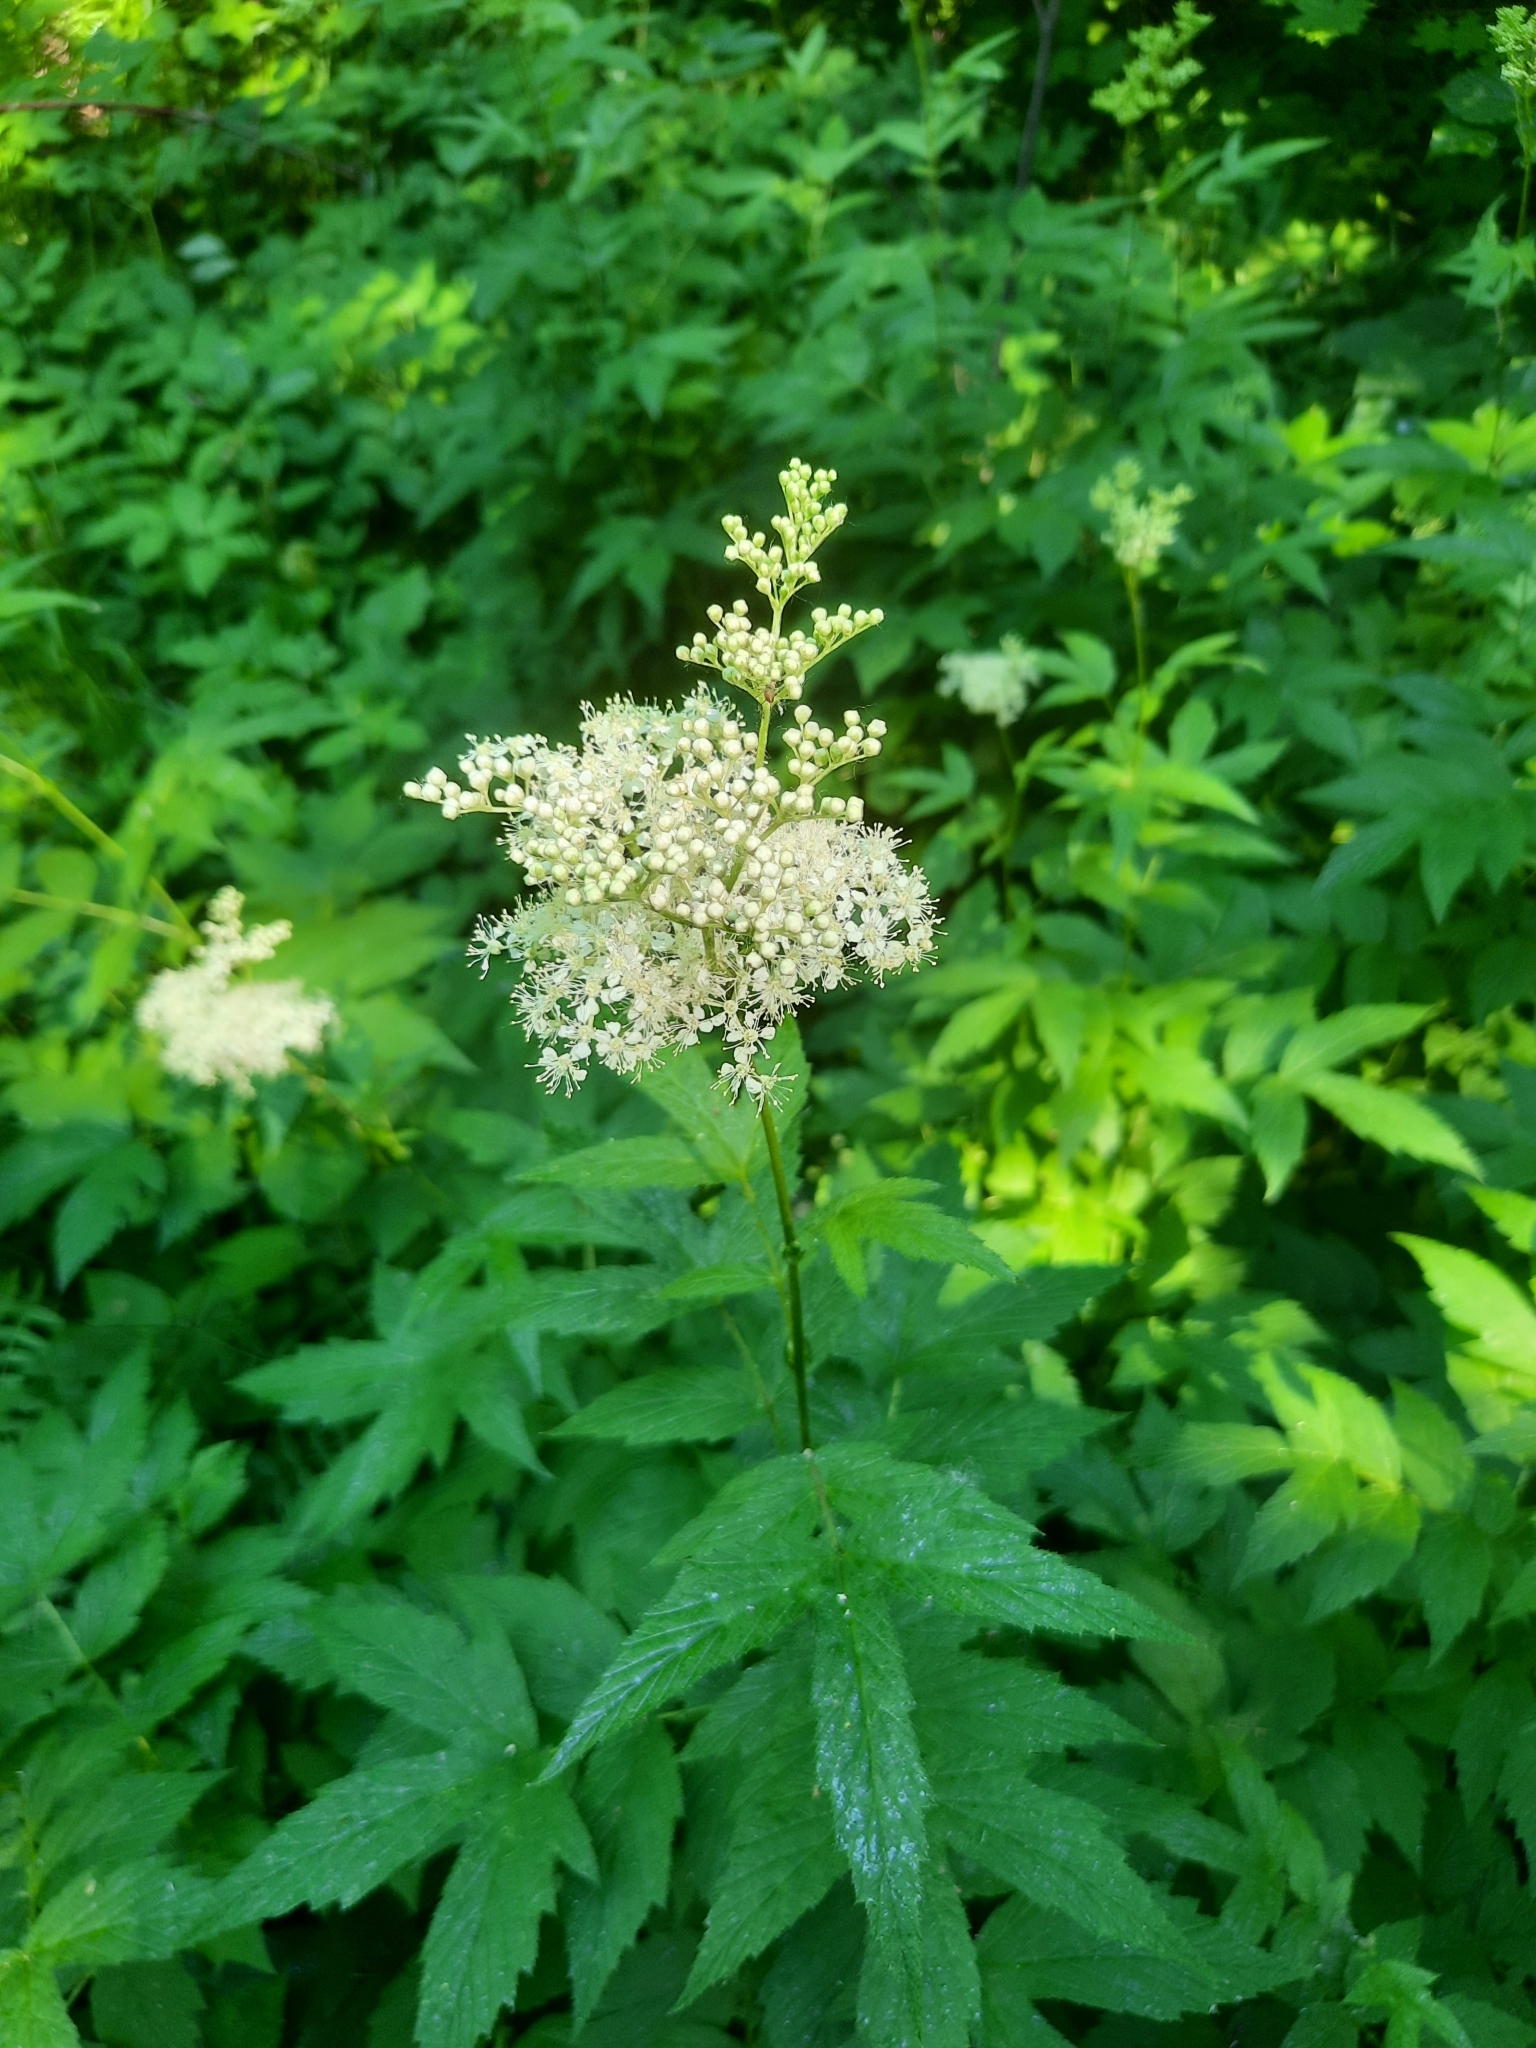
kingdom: Plantae
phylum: Tracheophyta
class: Magnoliopsida
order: Rosales
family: Rosaceae
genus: Filipendula
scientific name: Filipendula ulmaria
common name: Meadowsweet
